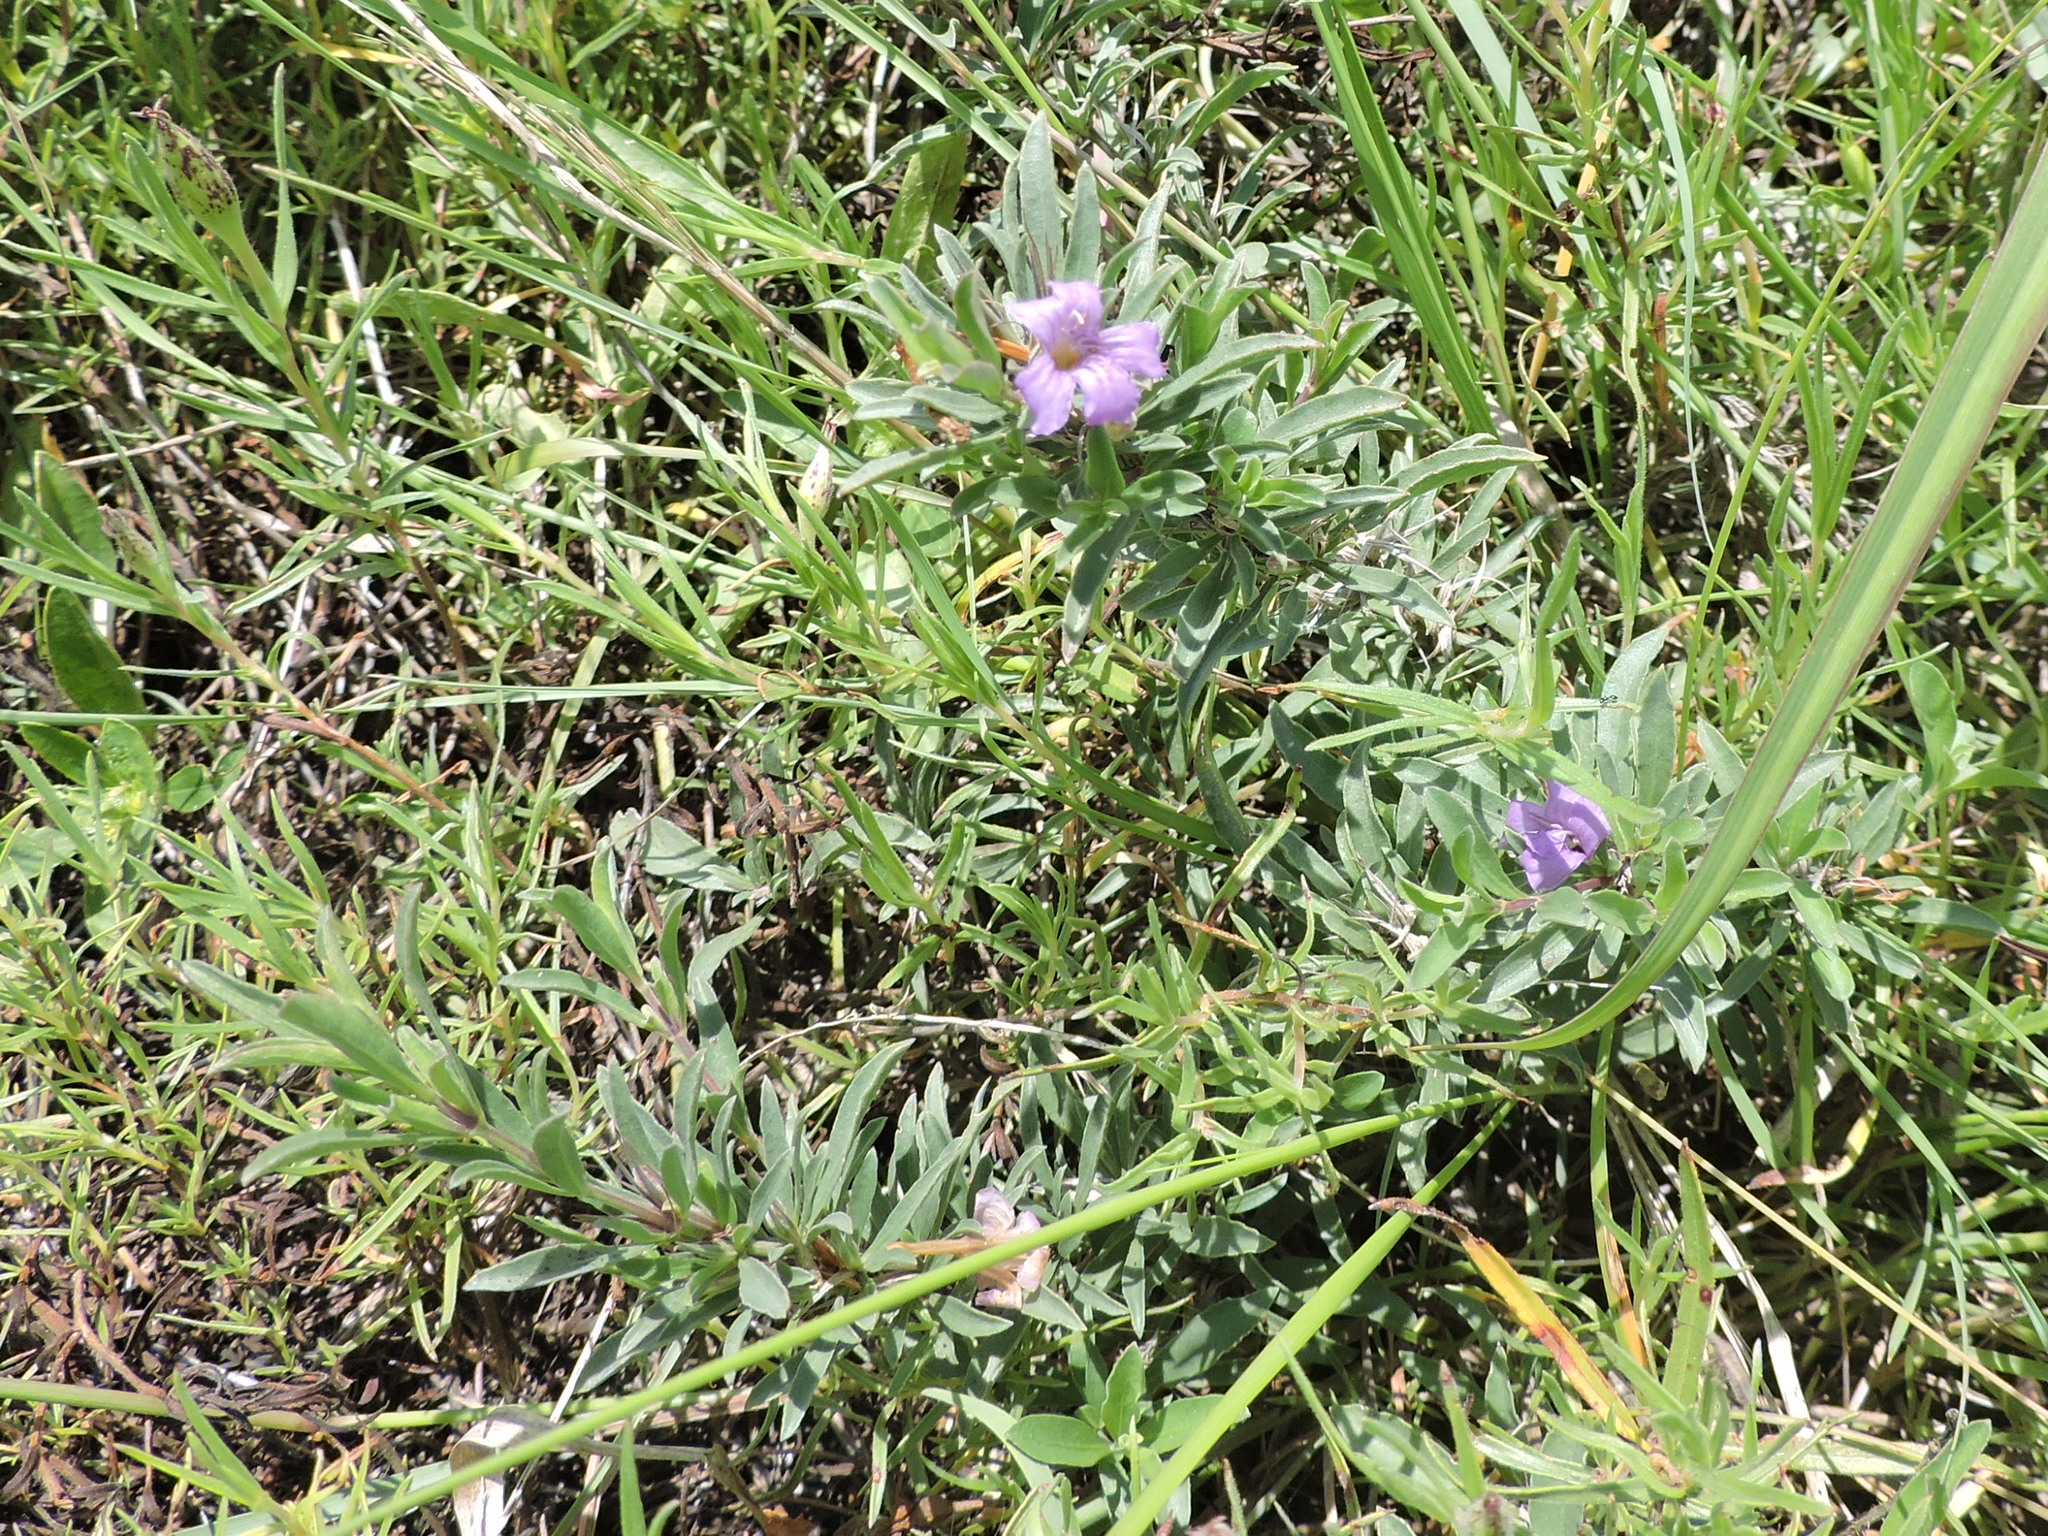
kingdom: Plantae
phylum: Tracheophyta
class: Magnoliopsida
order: Lamiales
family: Acanthaceae
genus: Dyschoriste
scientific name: Dyschoriste schiedeana
